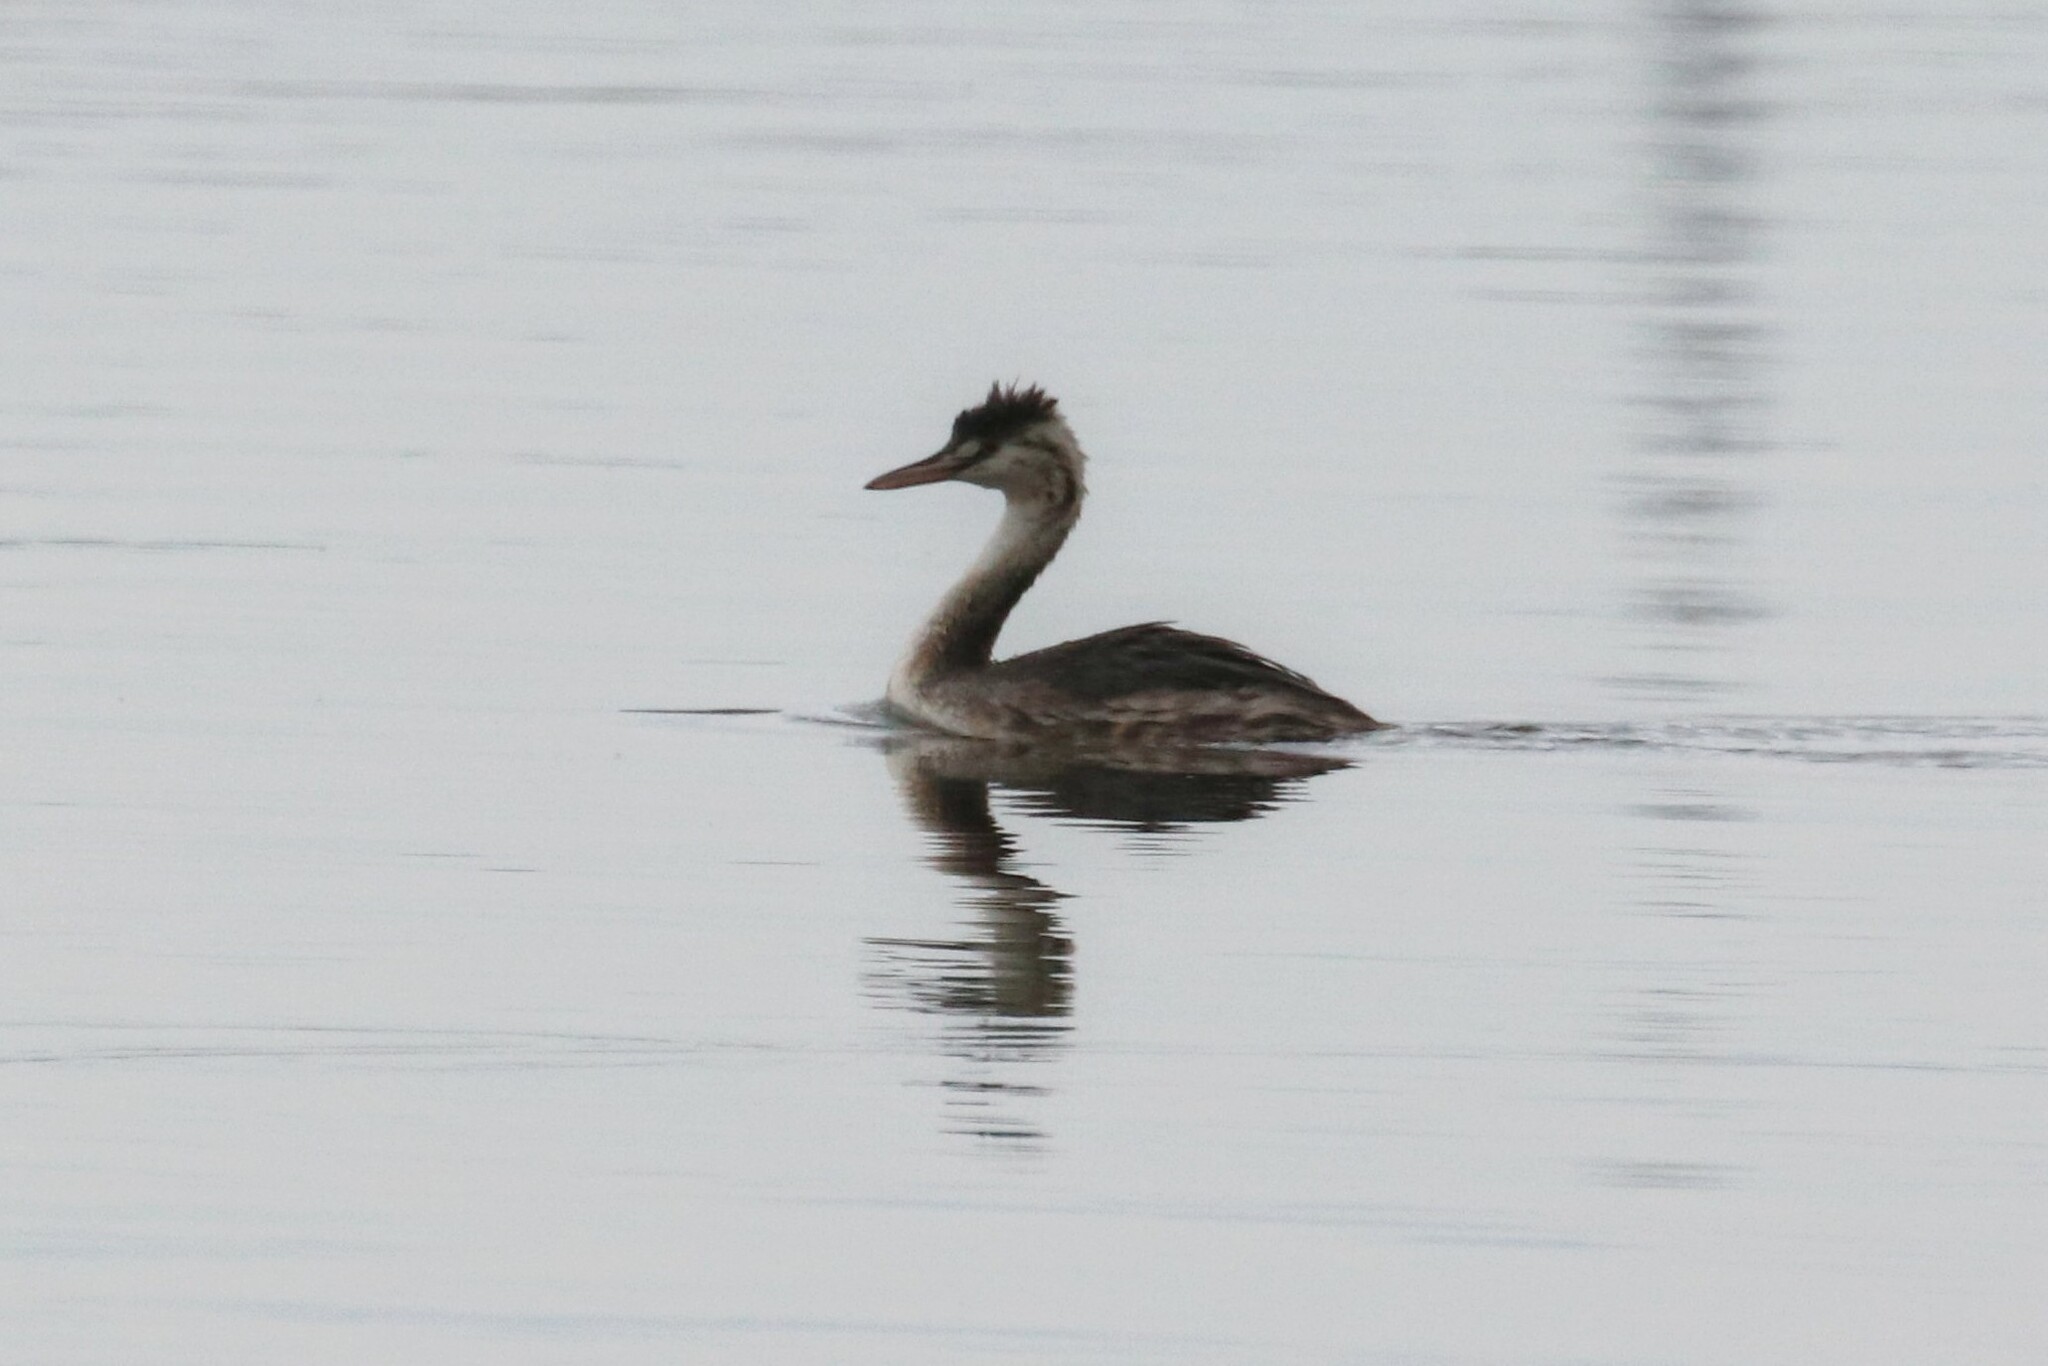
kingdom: Animalia
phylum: Chordata
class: Aves
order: Podicipediformes
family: Podicipedidae
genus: Podiceps
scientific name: Podiceps cristatus
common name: Great crested grebe
